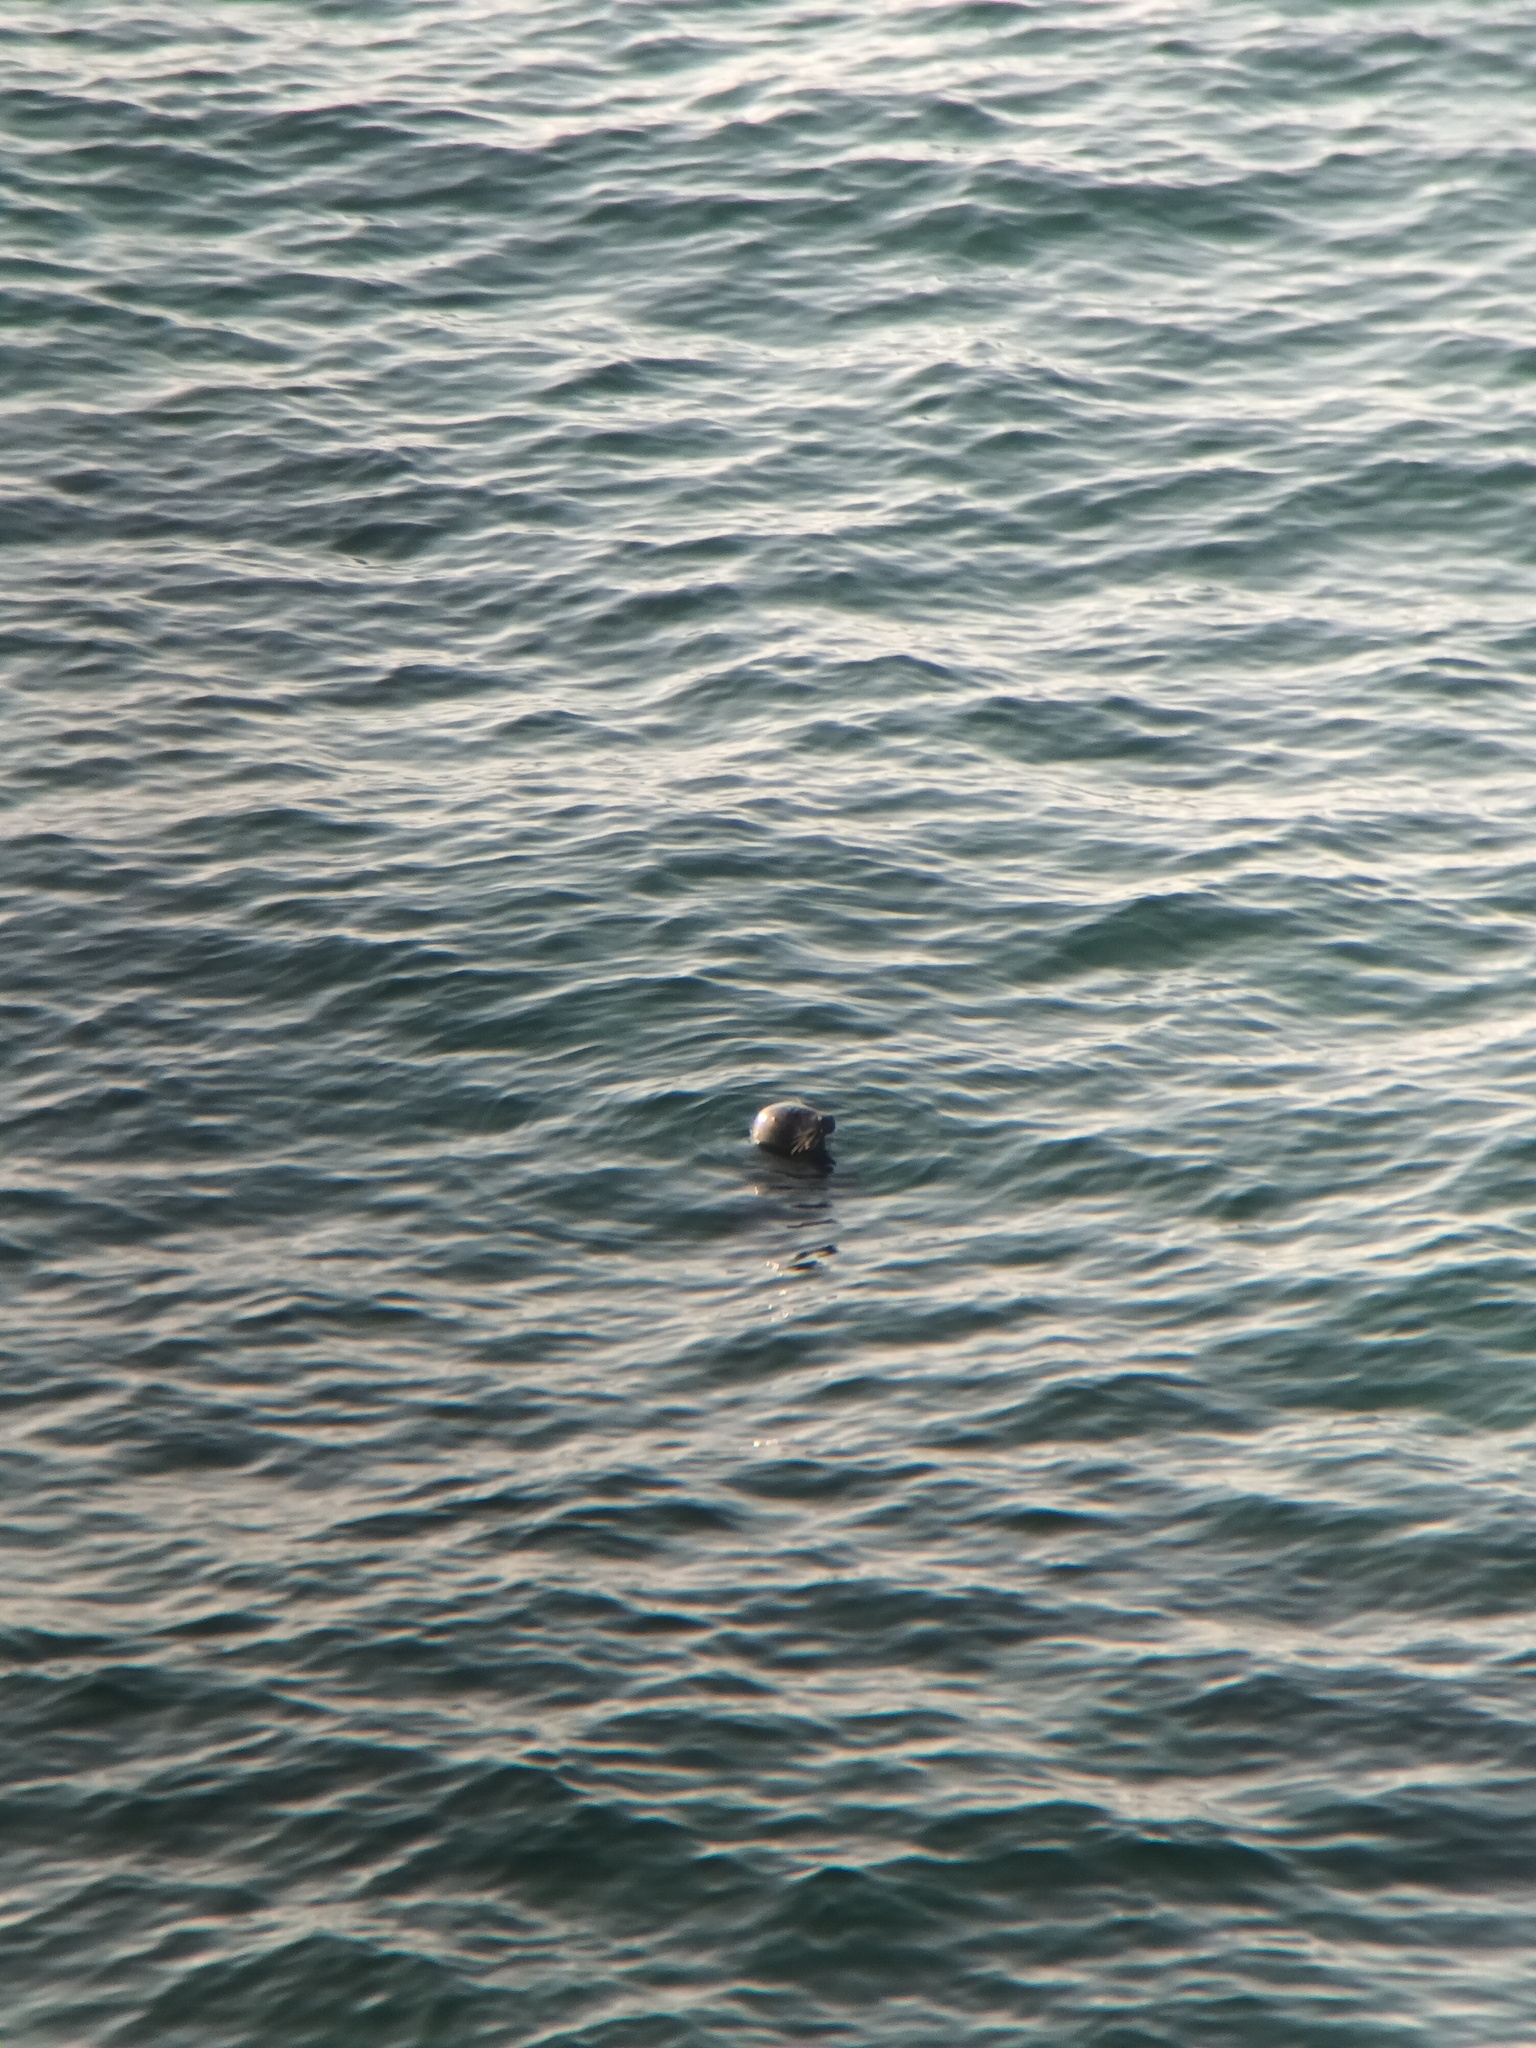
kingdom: Animalia
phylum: Chordata
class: Mammalia
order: Carnivora
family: Phocidae
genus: Halichoerus
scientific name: Halichoerus grypus
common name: Grey seal
